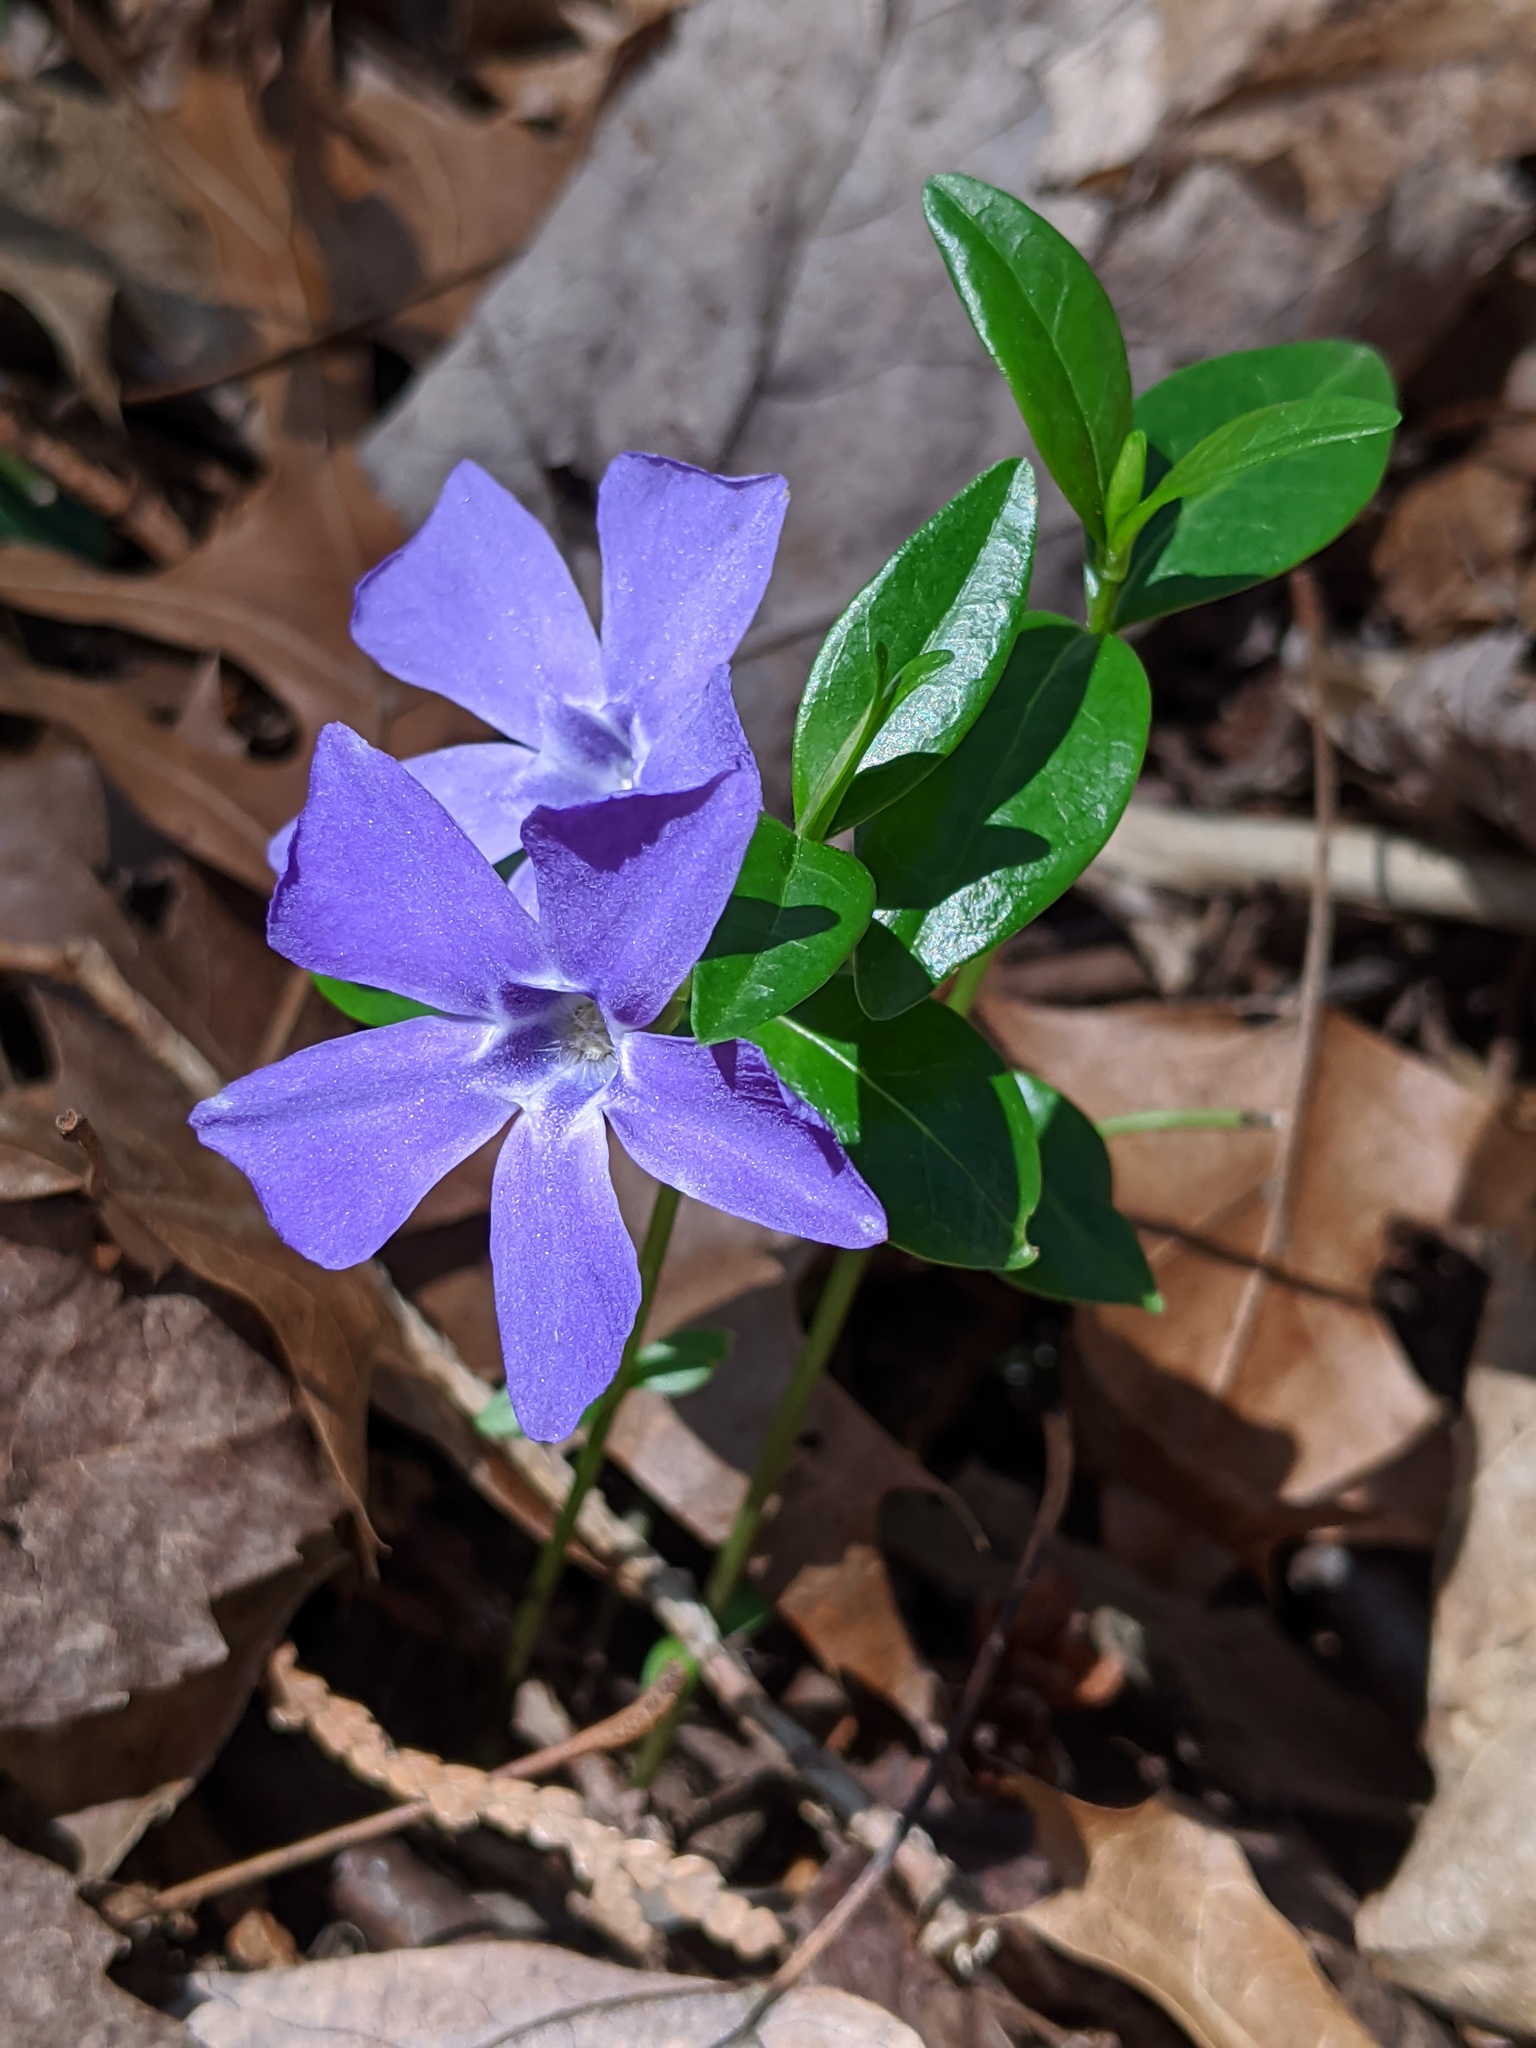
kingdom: Plantae
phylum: Tracheophyta
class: Magnoliopsida
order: Gentianales
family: Apocynaceae
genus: Vinca
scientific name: Vinca minor
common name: Lesser periwinkle
